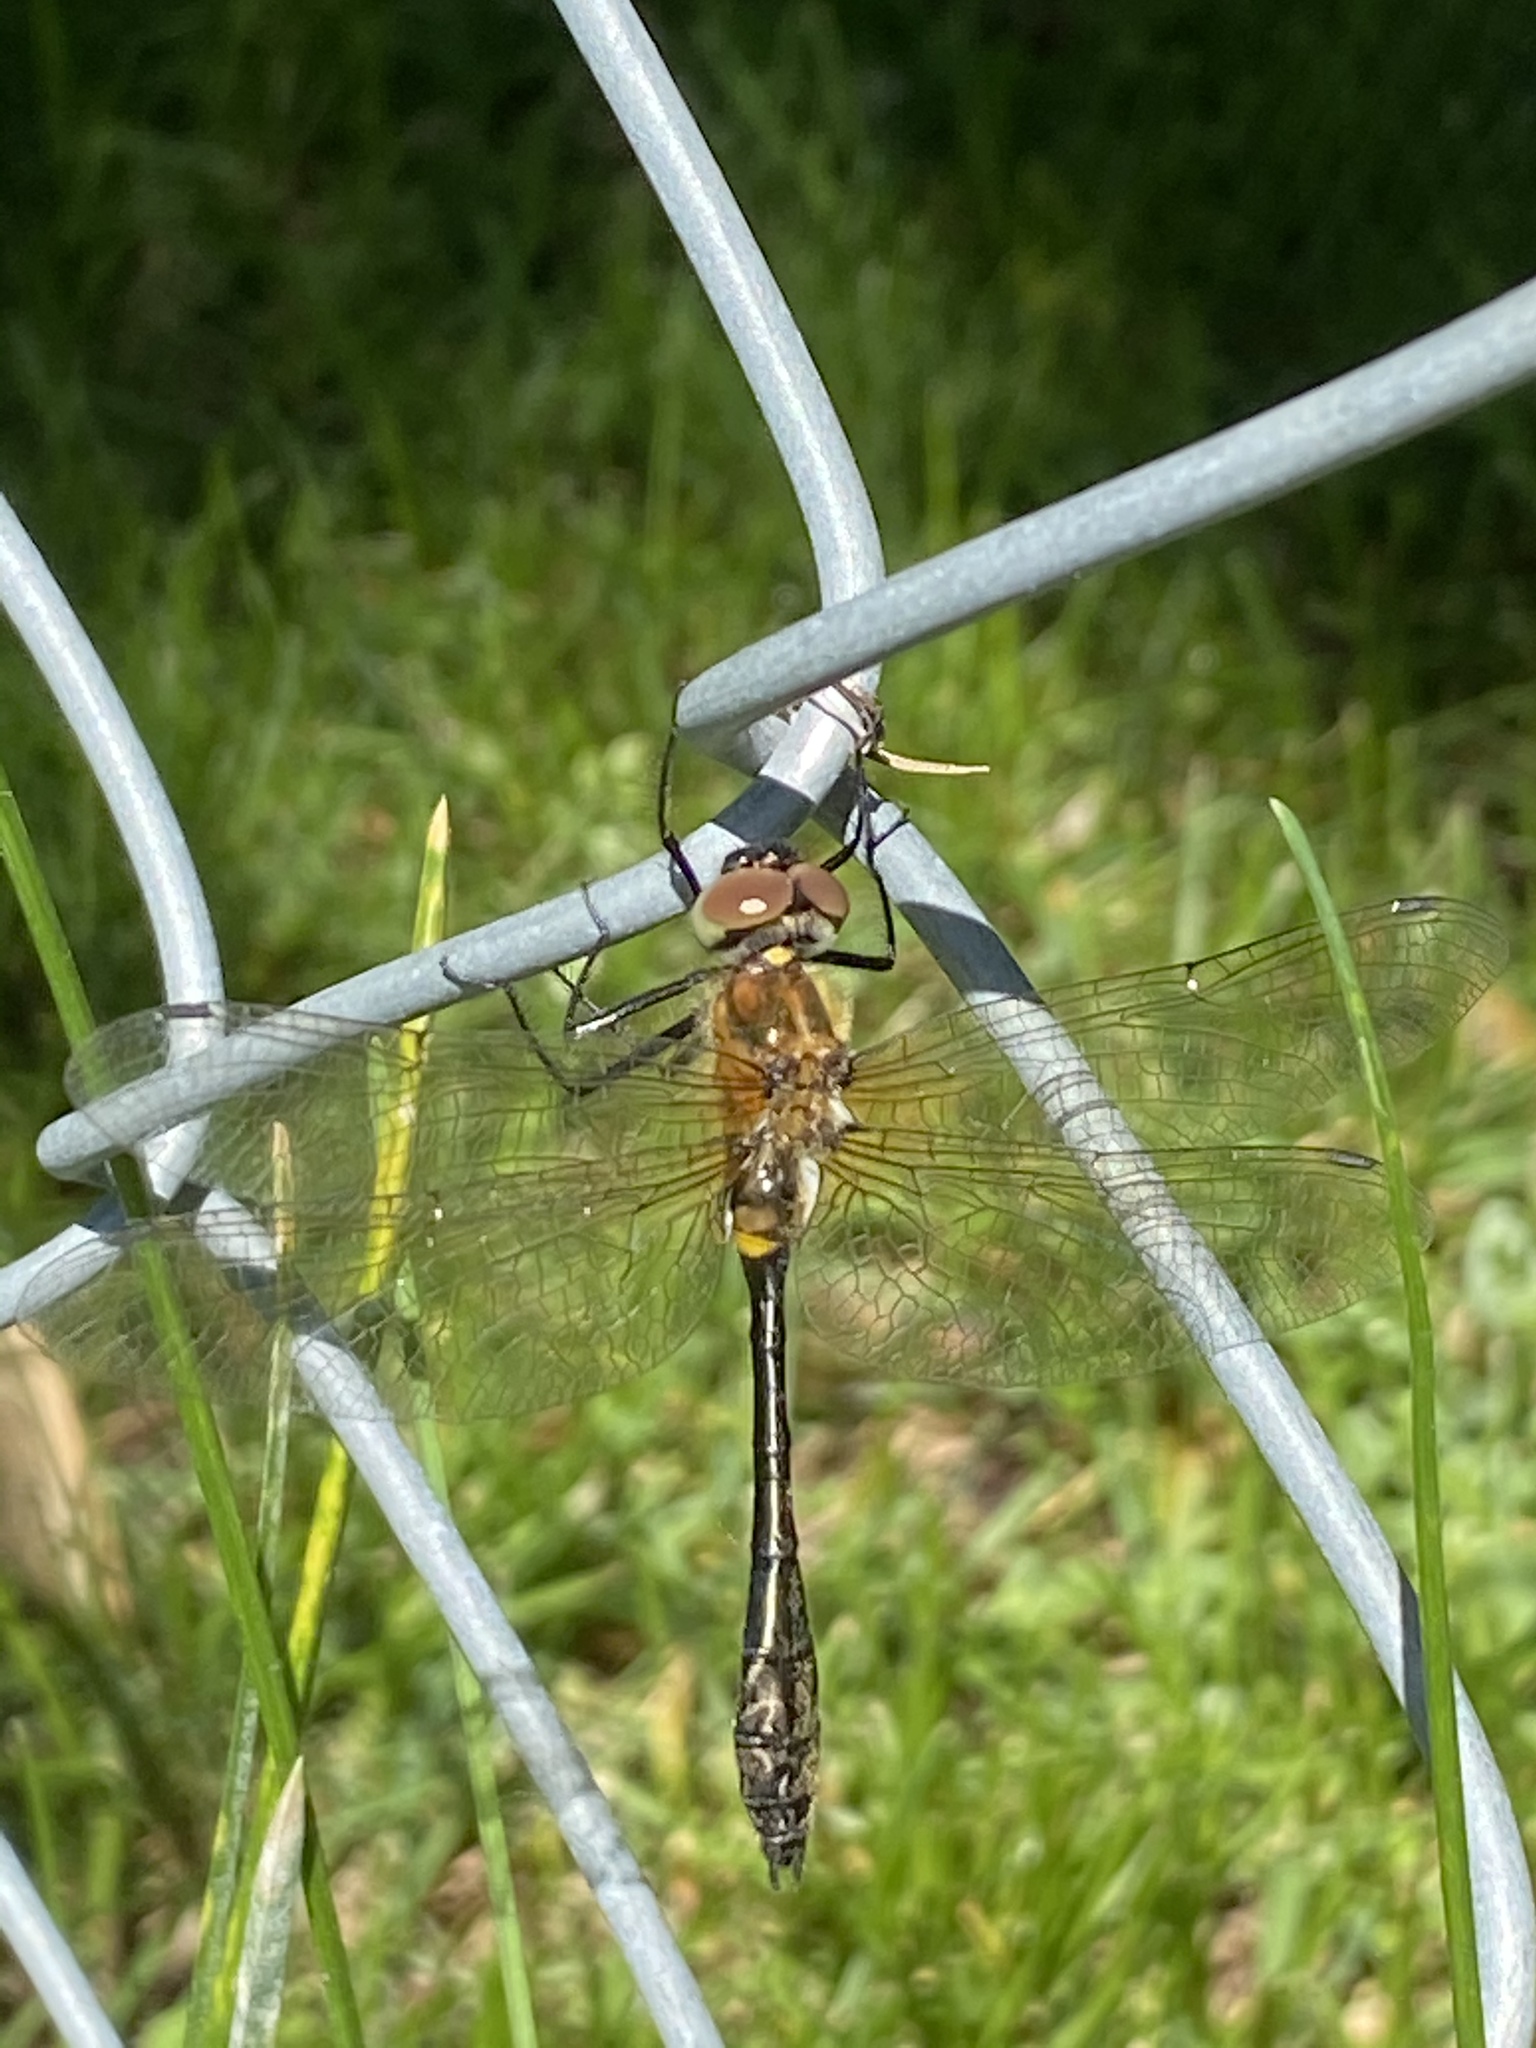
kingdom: Animalia
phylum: Arthropoda
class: Insecta
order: Odonata
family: Corduliidae
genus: Dorocordulia
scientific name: Dorocordulia libera
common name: Racket-tailed emerald
